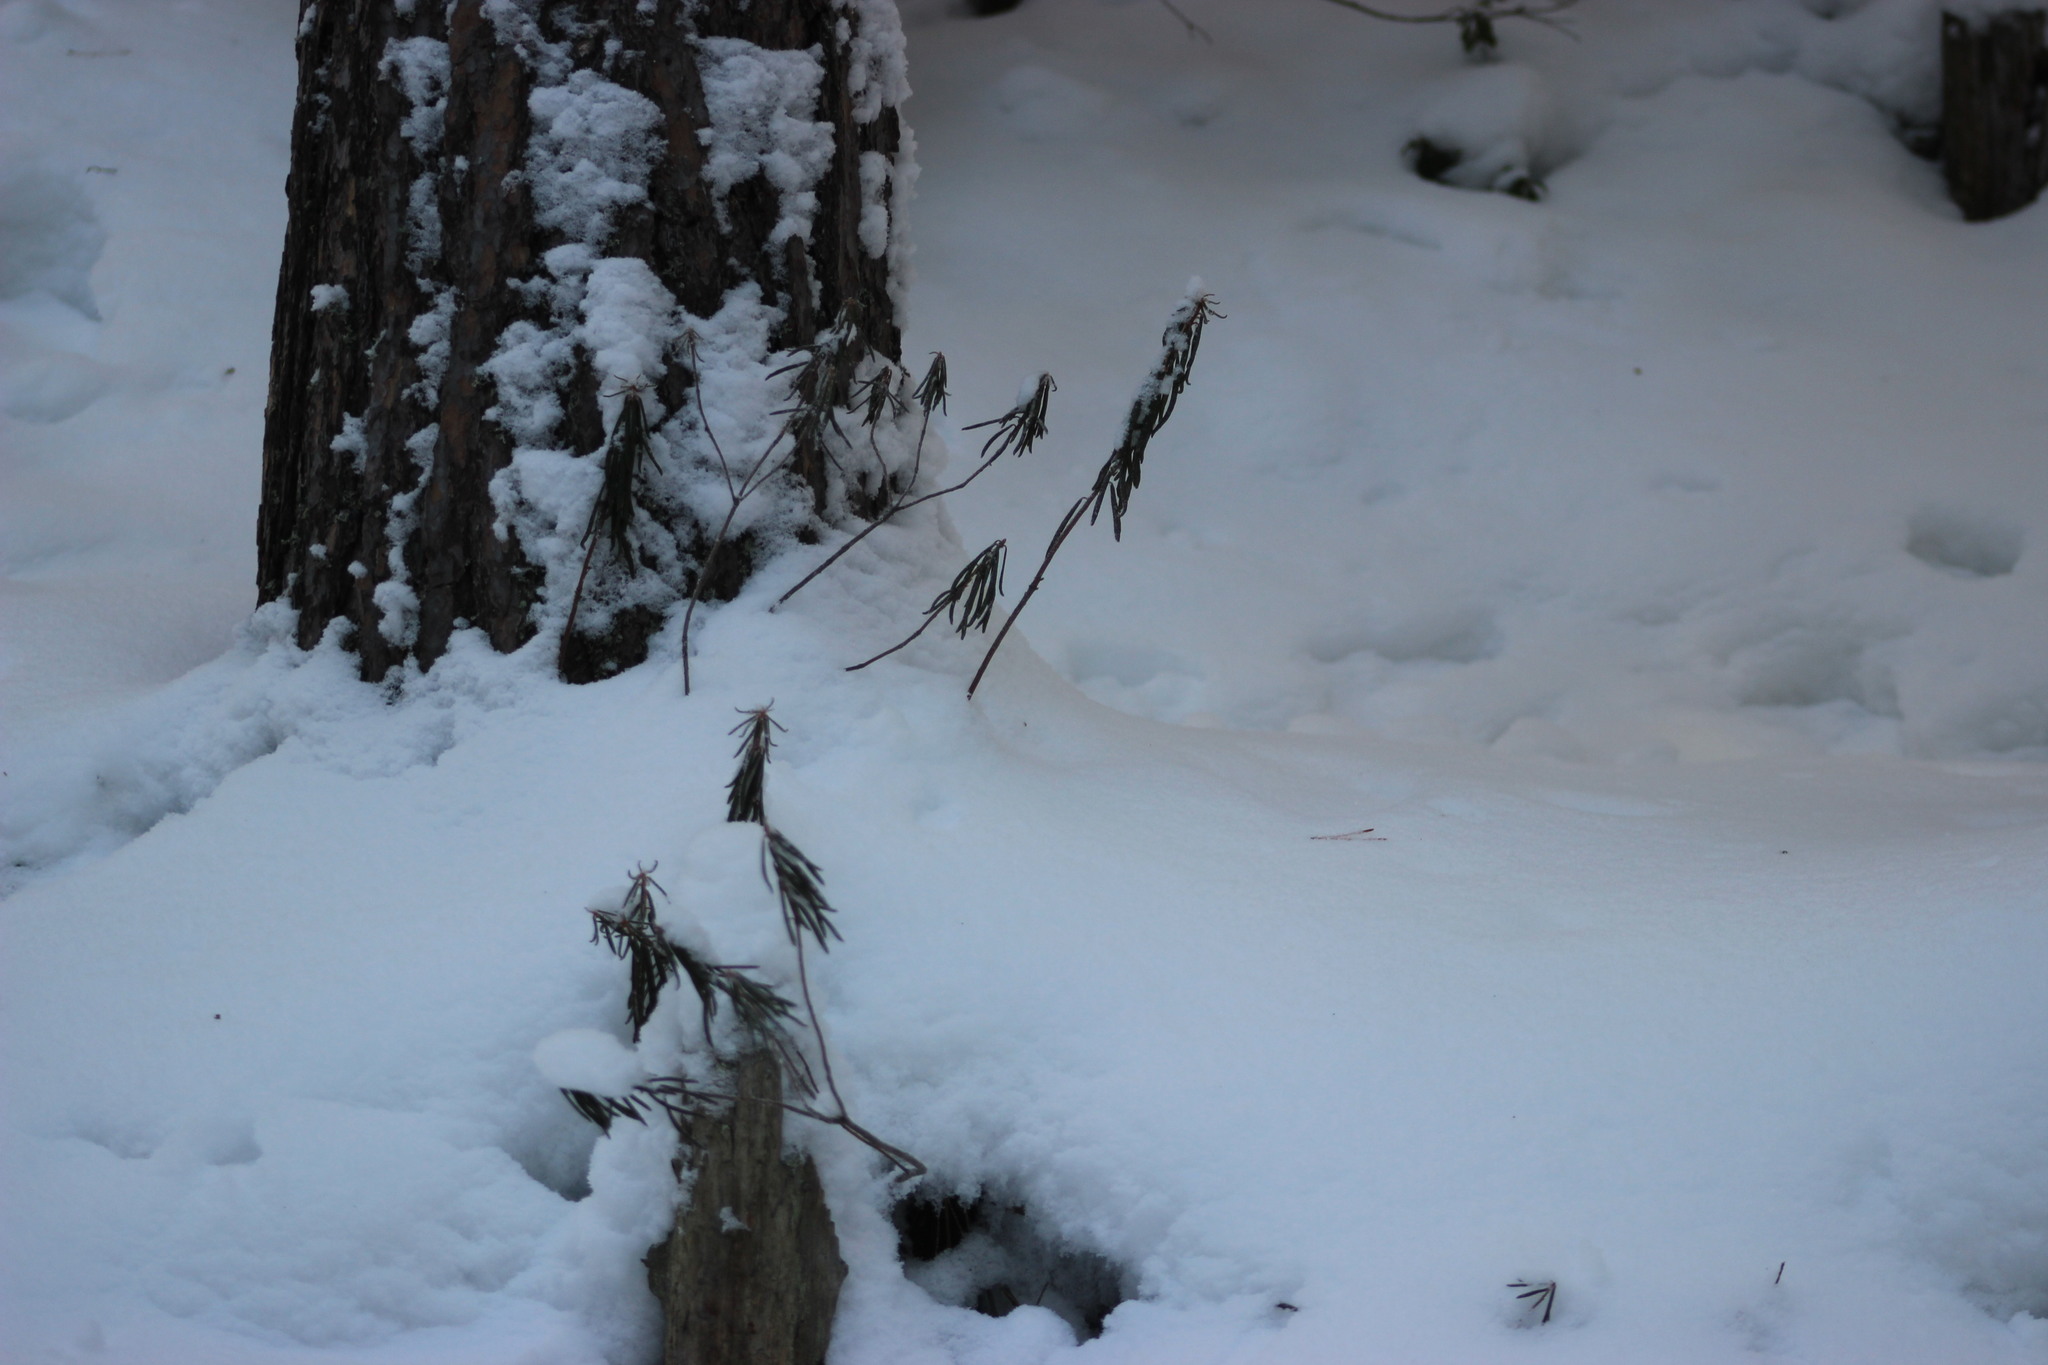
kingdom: Plantae
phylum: Tracheophyta
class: Magnoliopsida
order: Ericales
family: Ericaceae
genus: Rhododendron
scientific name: Rhododendron tomentosum
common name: Marsh labrador tea
